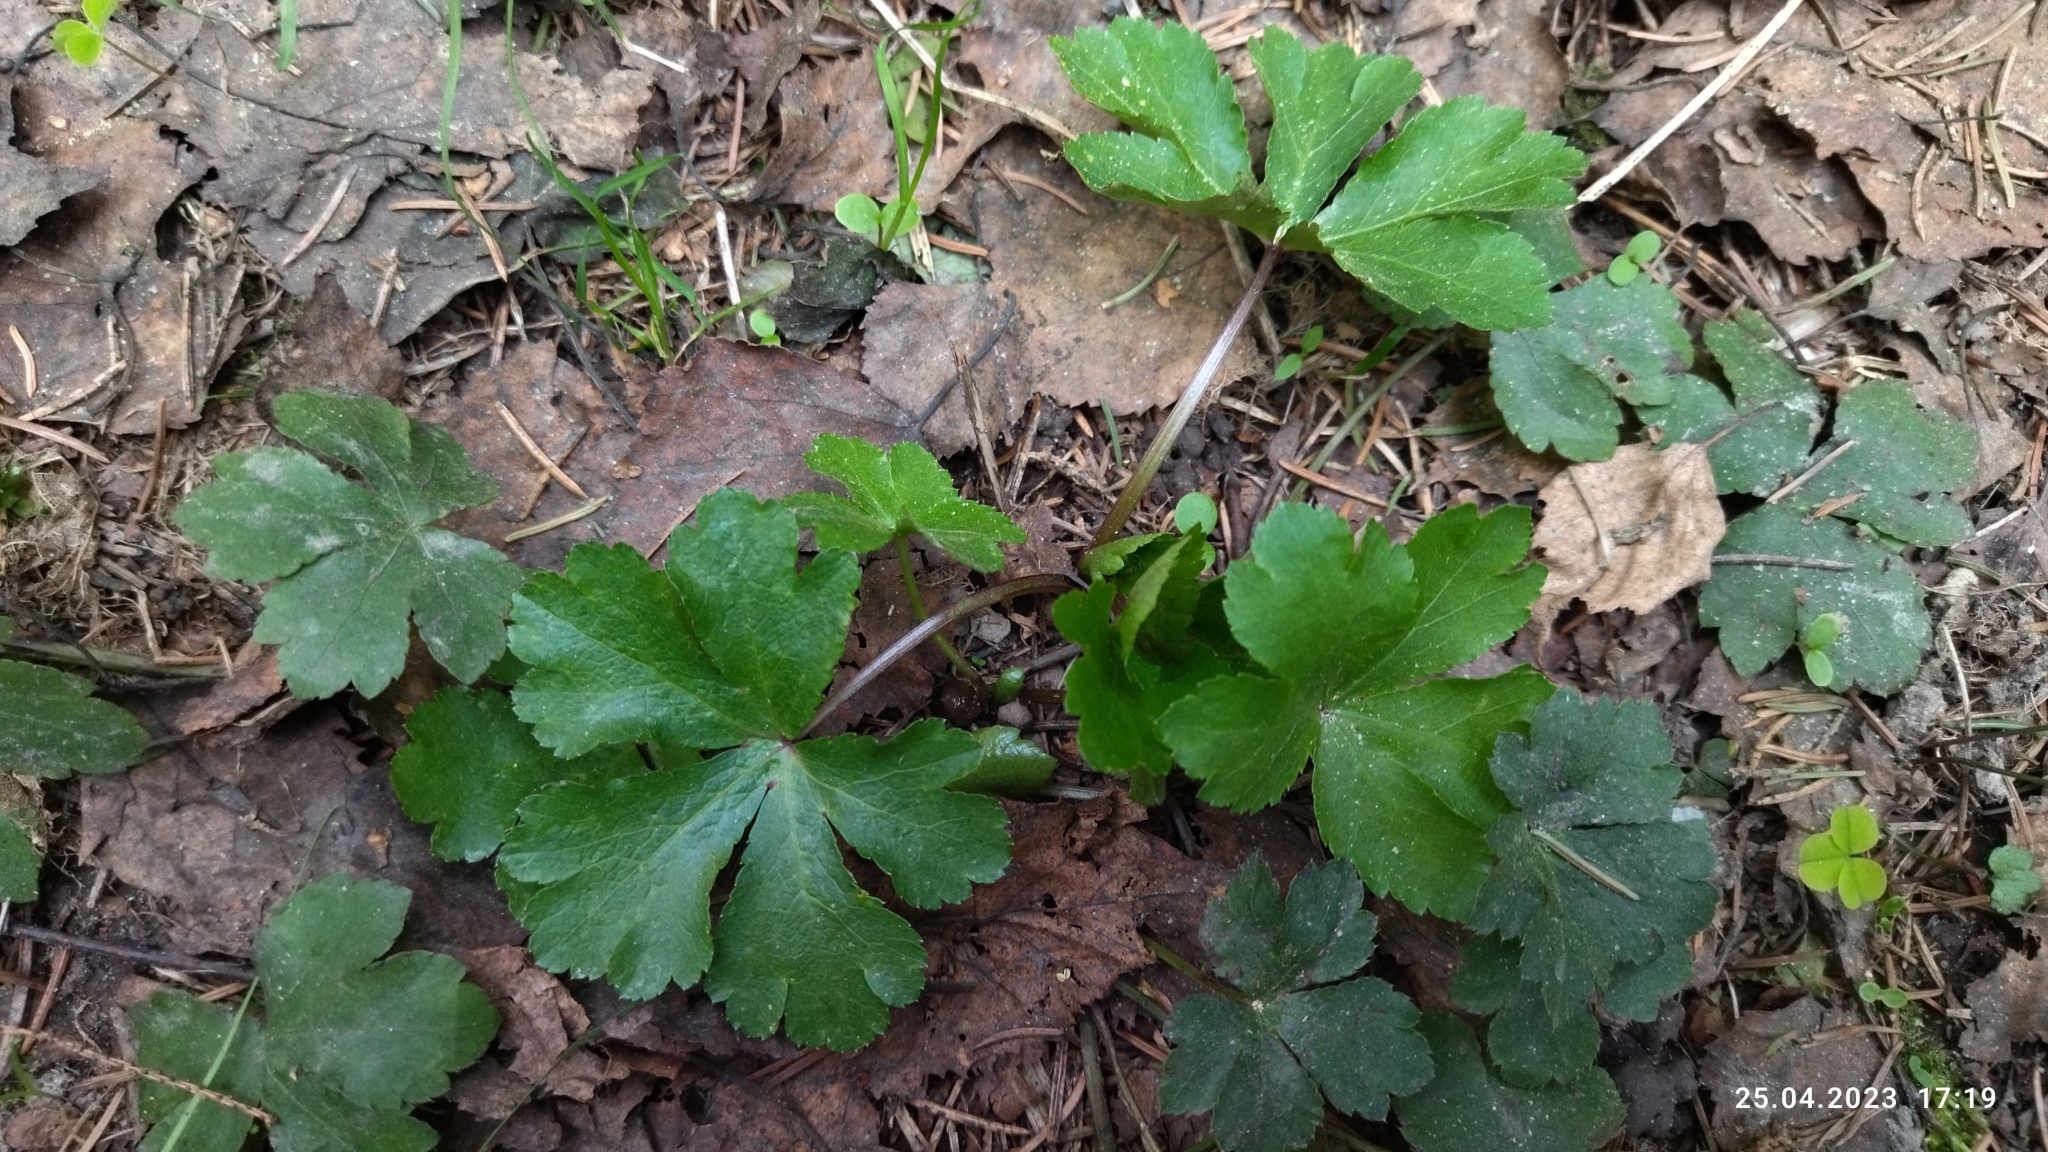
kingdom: Plantae
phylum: Tracheophyta
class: Magnoliopsida
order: Apiales
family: Apiaceae
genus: Sanicula
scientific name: Sanicula europaea
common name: Sanicle
